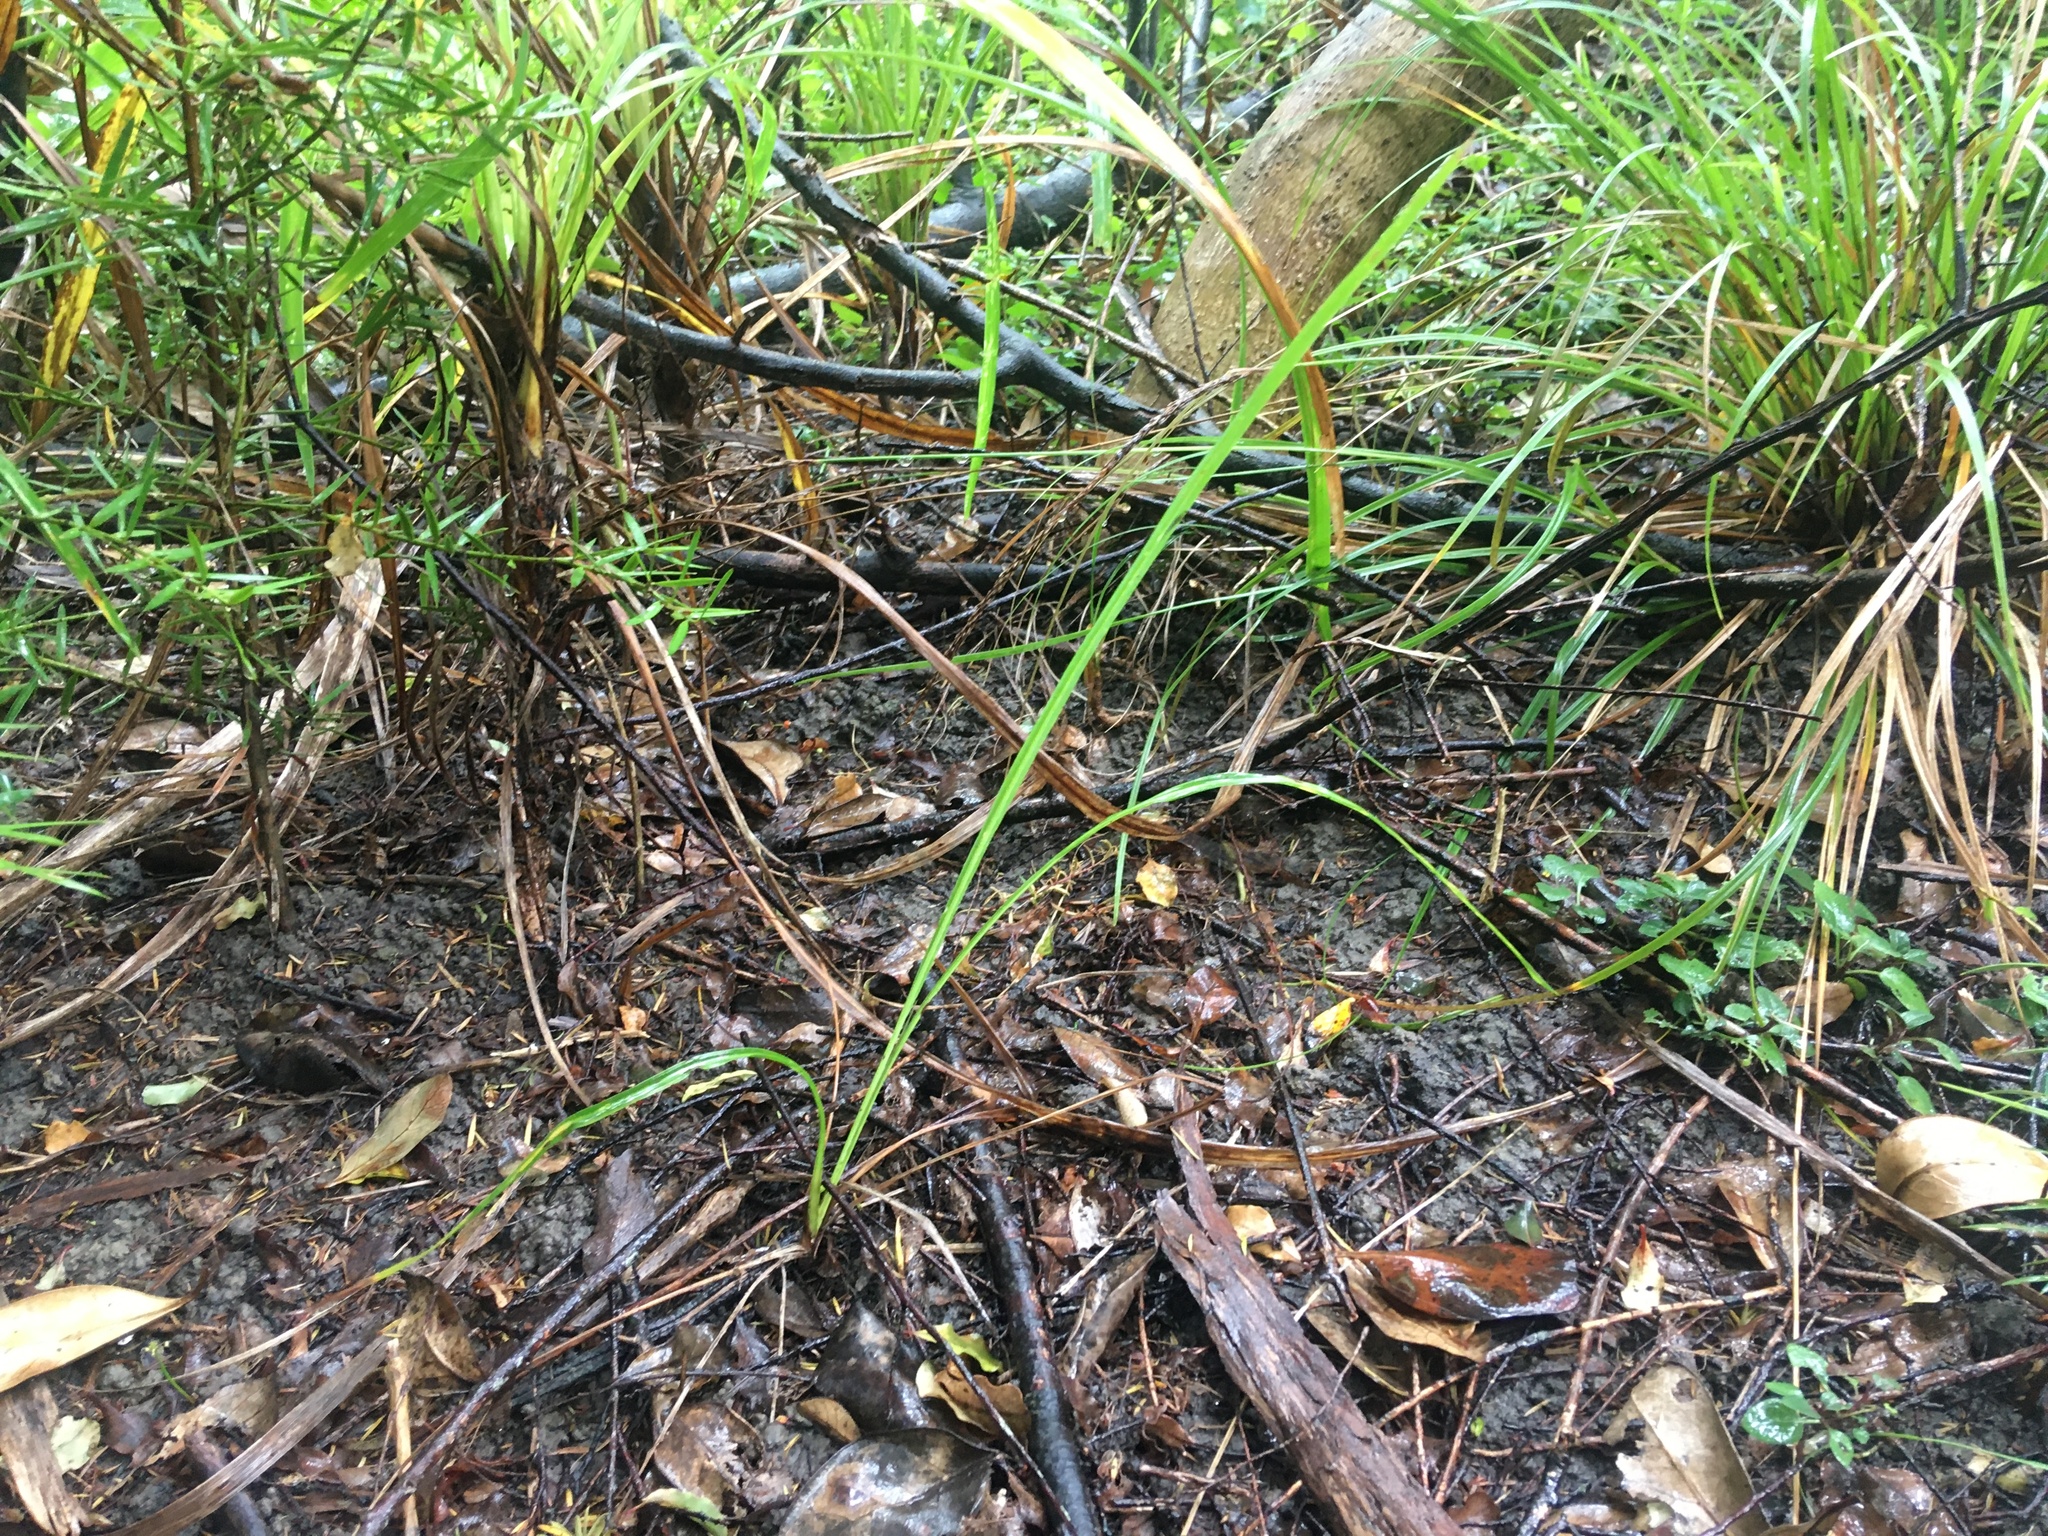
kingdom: Plantae
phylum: Tracheophyta
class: Liliopsida
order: Asparagales
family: Asparagaceae
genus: Cordyline
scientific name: Cordyline australis
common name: Cabbage-palm
